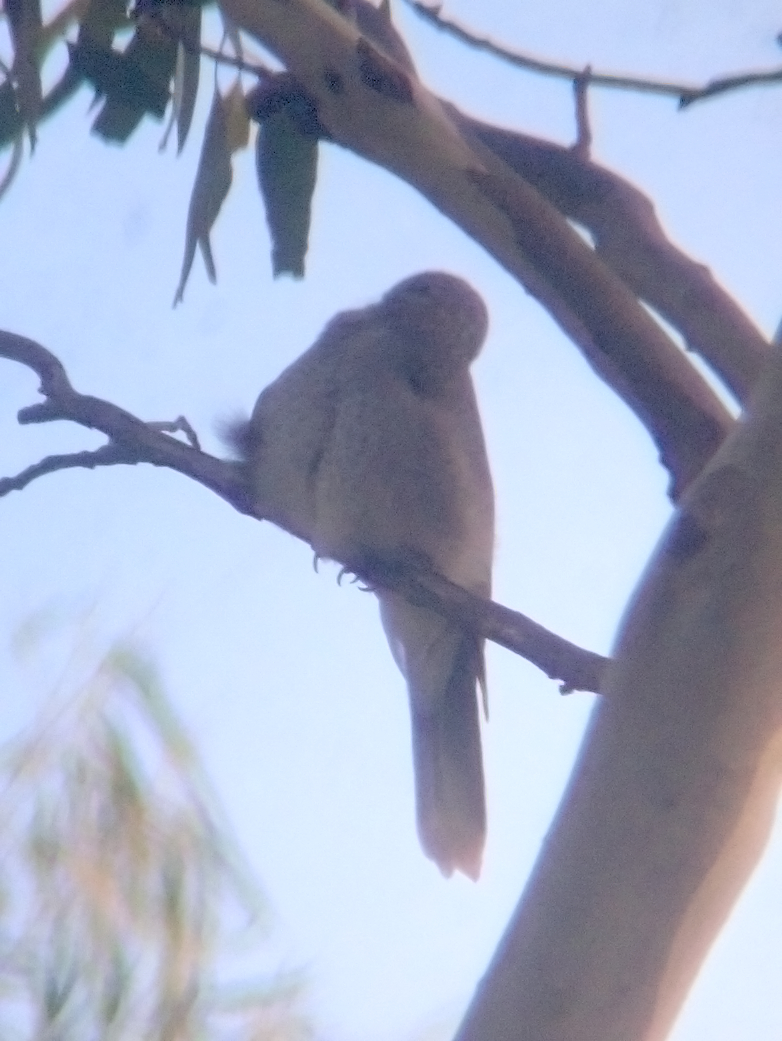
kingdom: Animalia
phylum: Chordata
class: Aves
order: Passeriformes
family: Meliphagidae
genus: Manorina
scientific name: Manorina melanocephala
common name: Noisy miner
